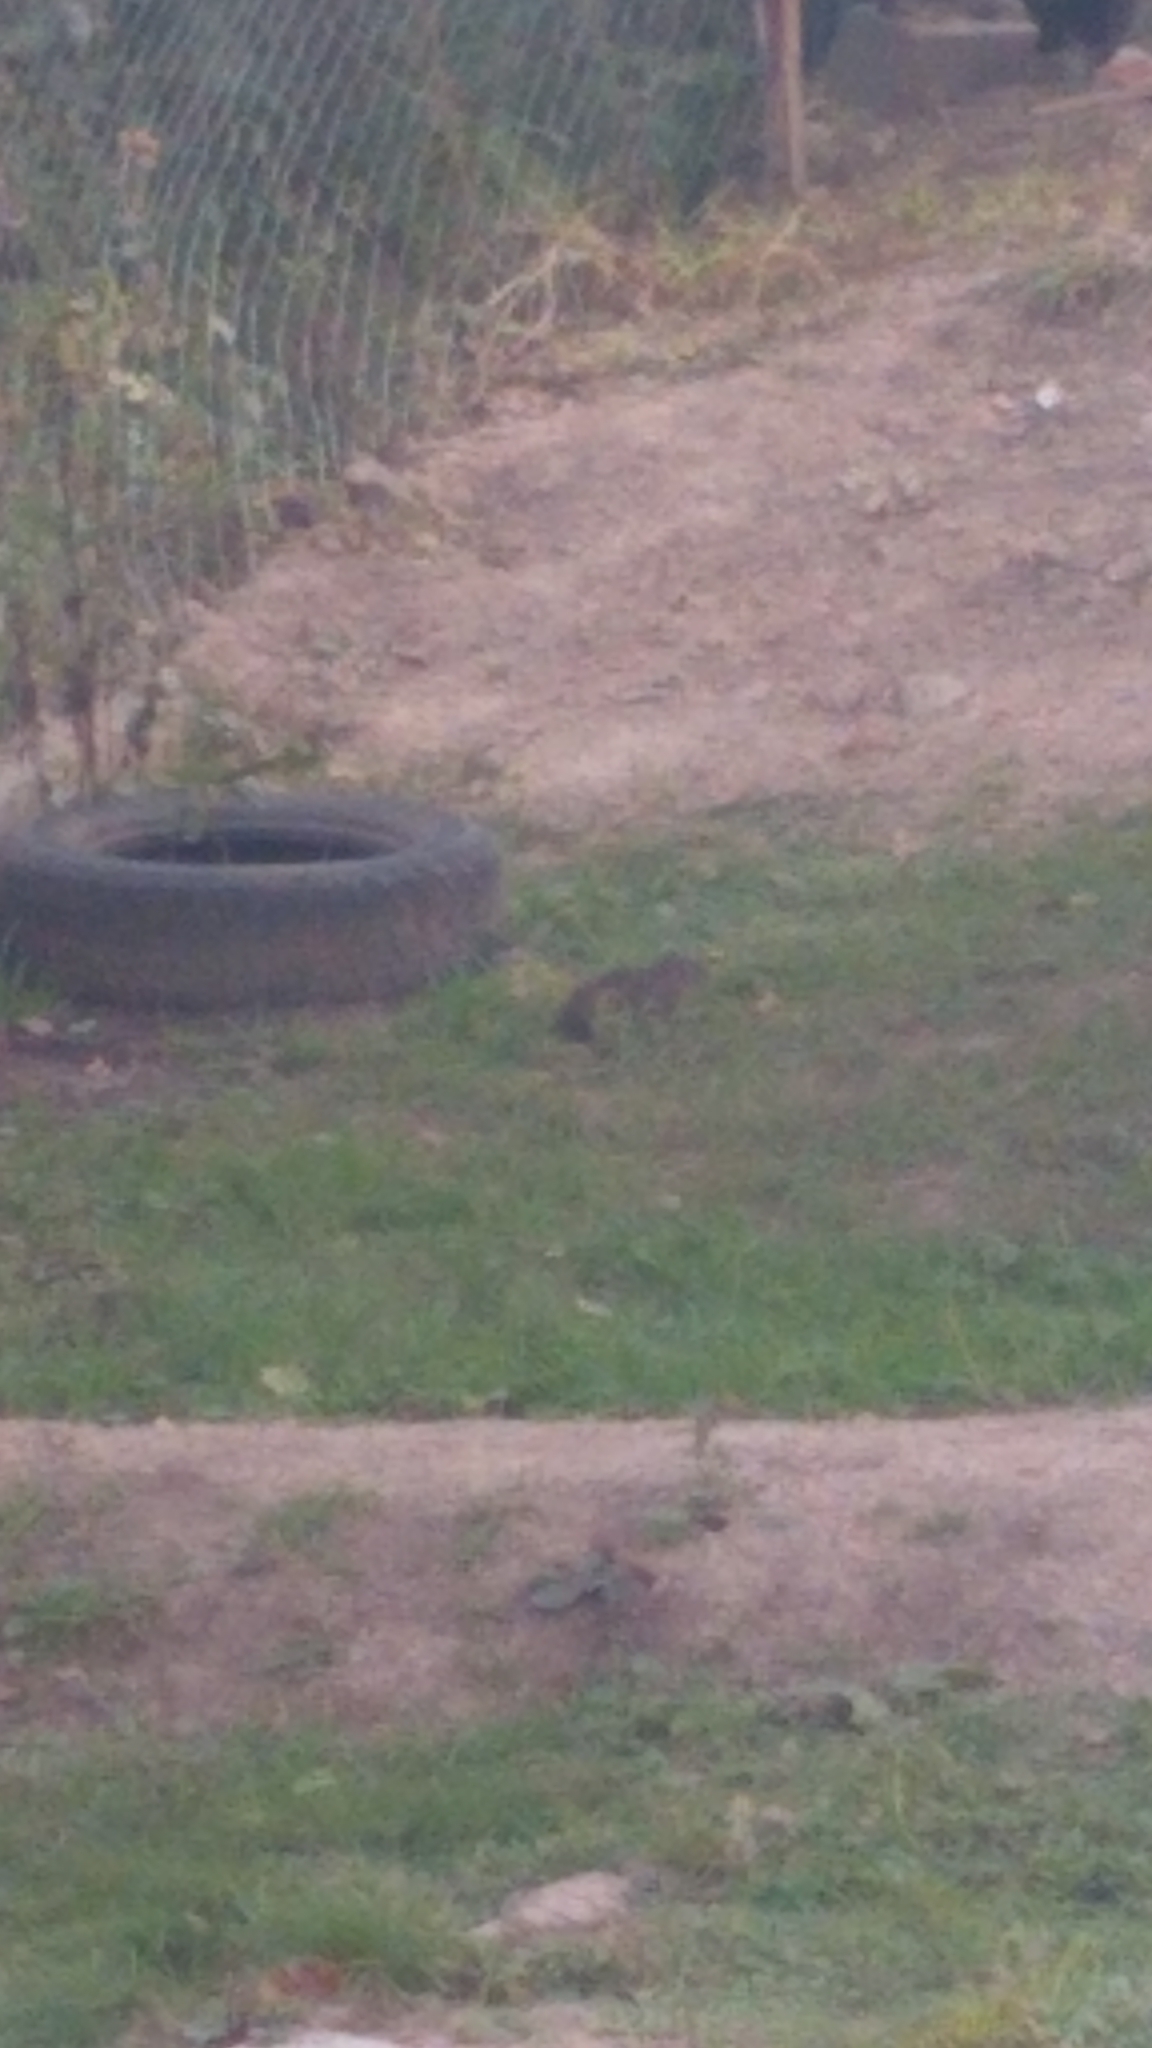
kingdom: Animalia
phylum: Chordata
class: Mammalia
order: Rodentia
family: Caviidae
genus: Cavia
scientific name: Cavia aperea
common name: Brazilian guinea pig
